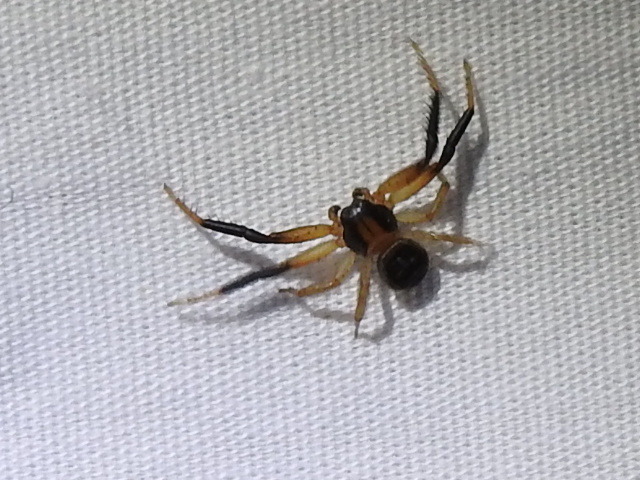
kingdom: Animalia
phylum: Arthropoda
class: Arachnida
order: Araneae
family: Thomisidae
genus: Xysticus
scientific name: Xysticus texanus
